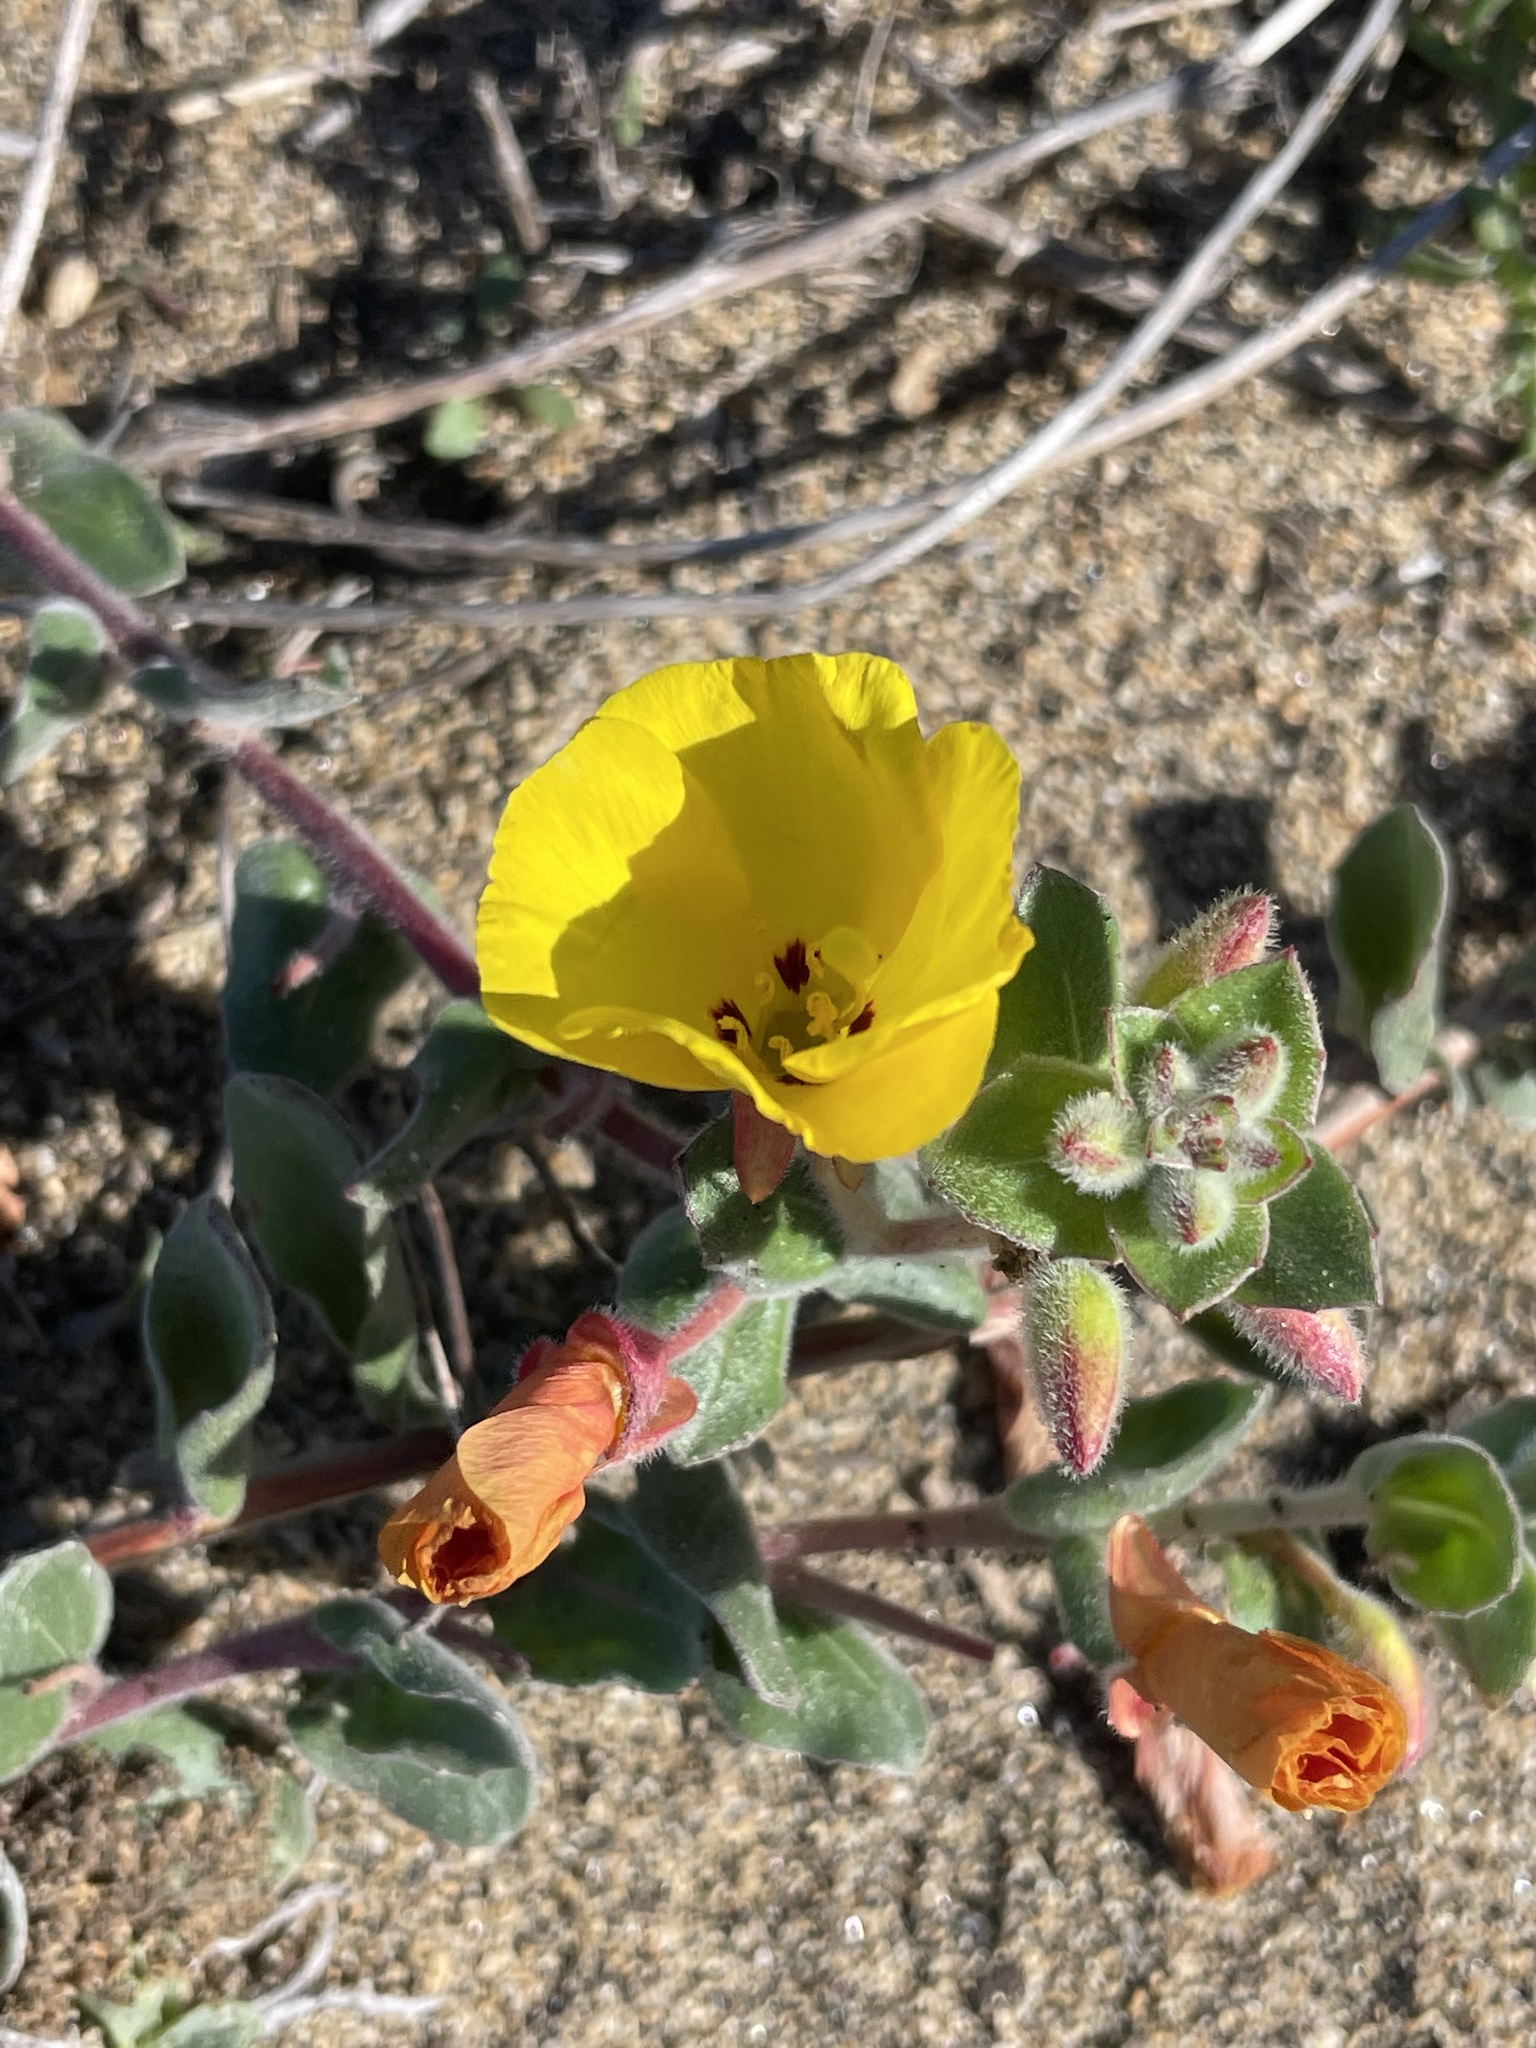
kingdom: Plantae
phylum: Tracheophyta
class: Magnoliopsida
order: Myrtales
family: Onagraceae
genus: Camissoniopsis
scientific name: Camissoniopsis cheiranthifolia
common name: Beach suncup
